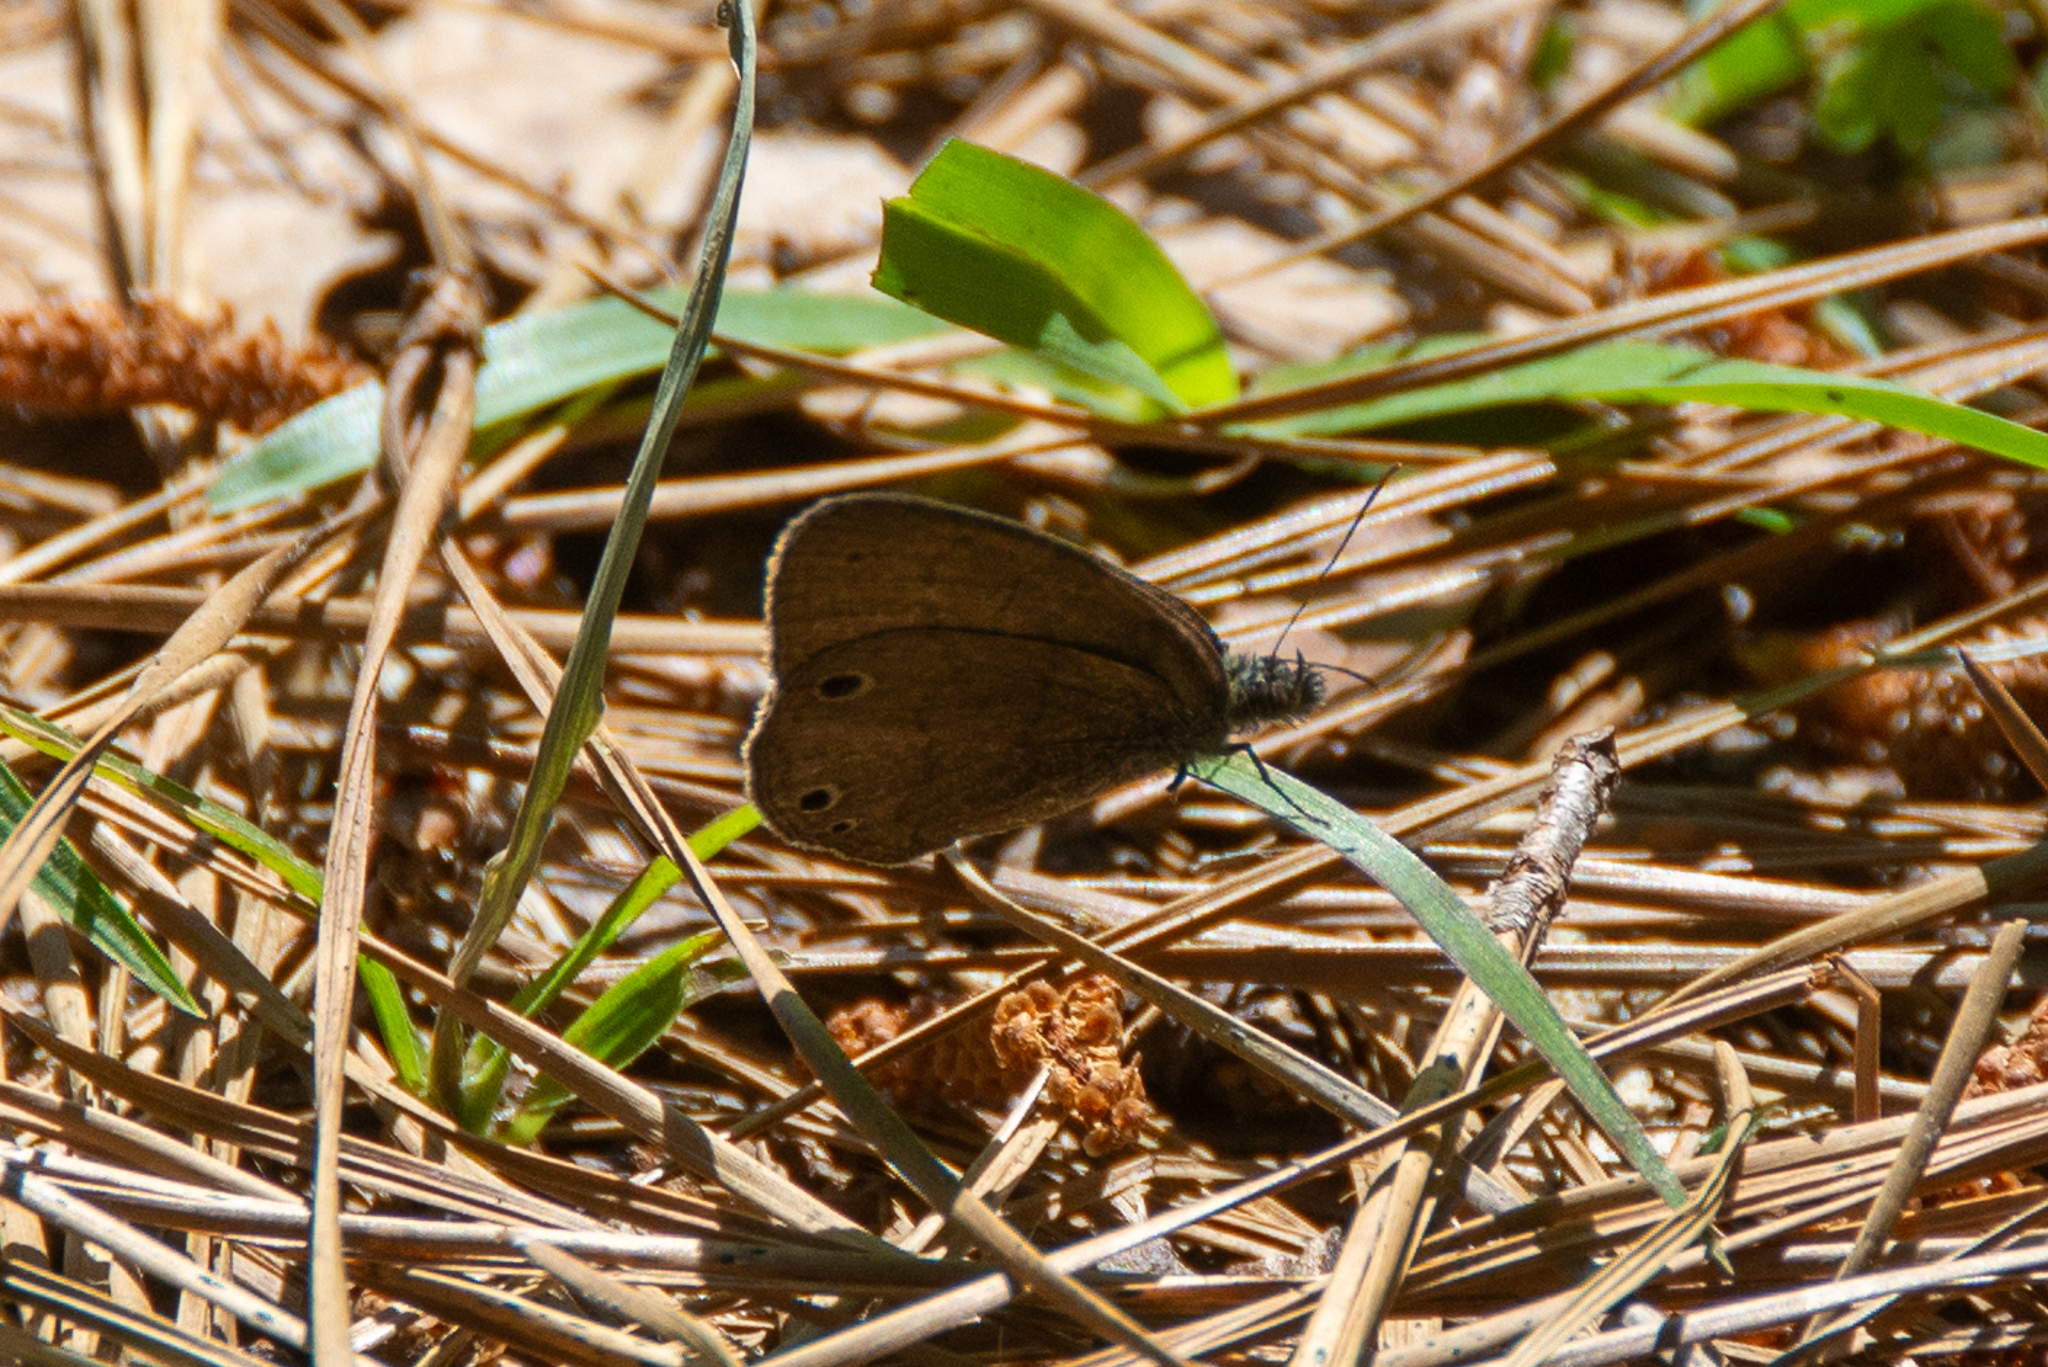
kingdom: Animalia
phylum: Arthropoda
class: Insecta
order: Lepidoptera
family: Nymphalidae
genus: Hermeuptychia
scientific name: Hermeuptychia hermes
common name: Hermes satyr
